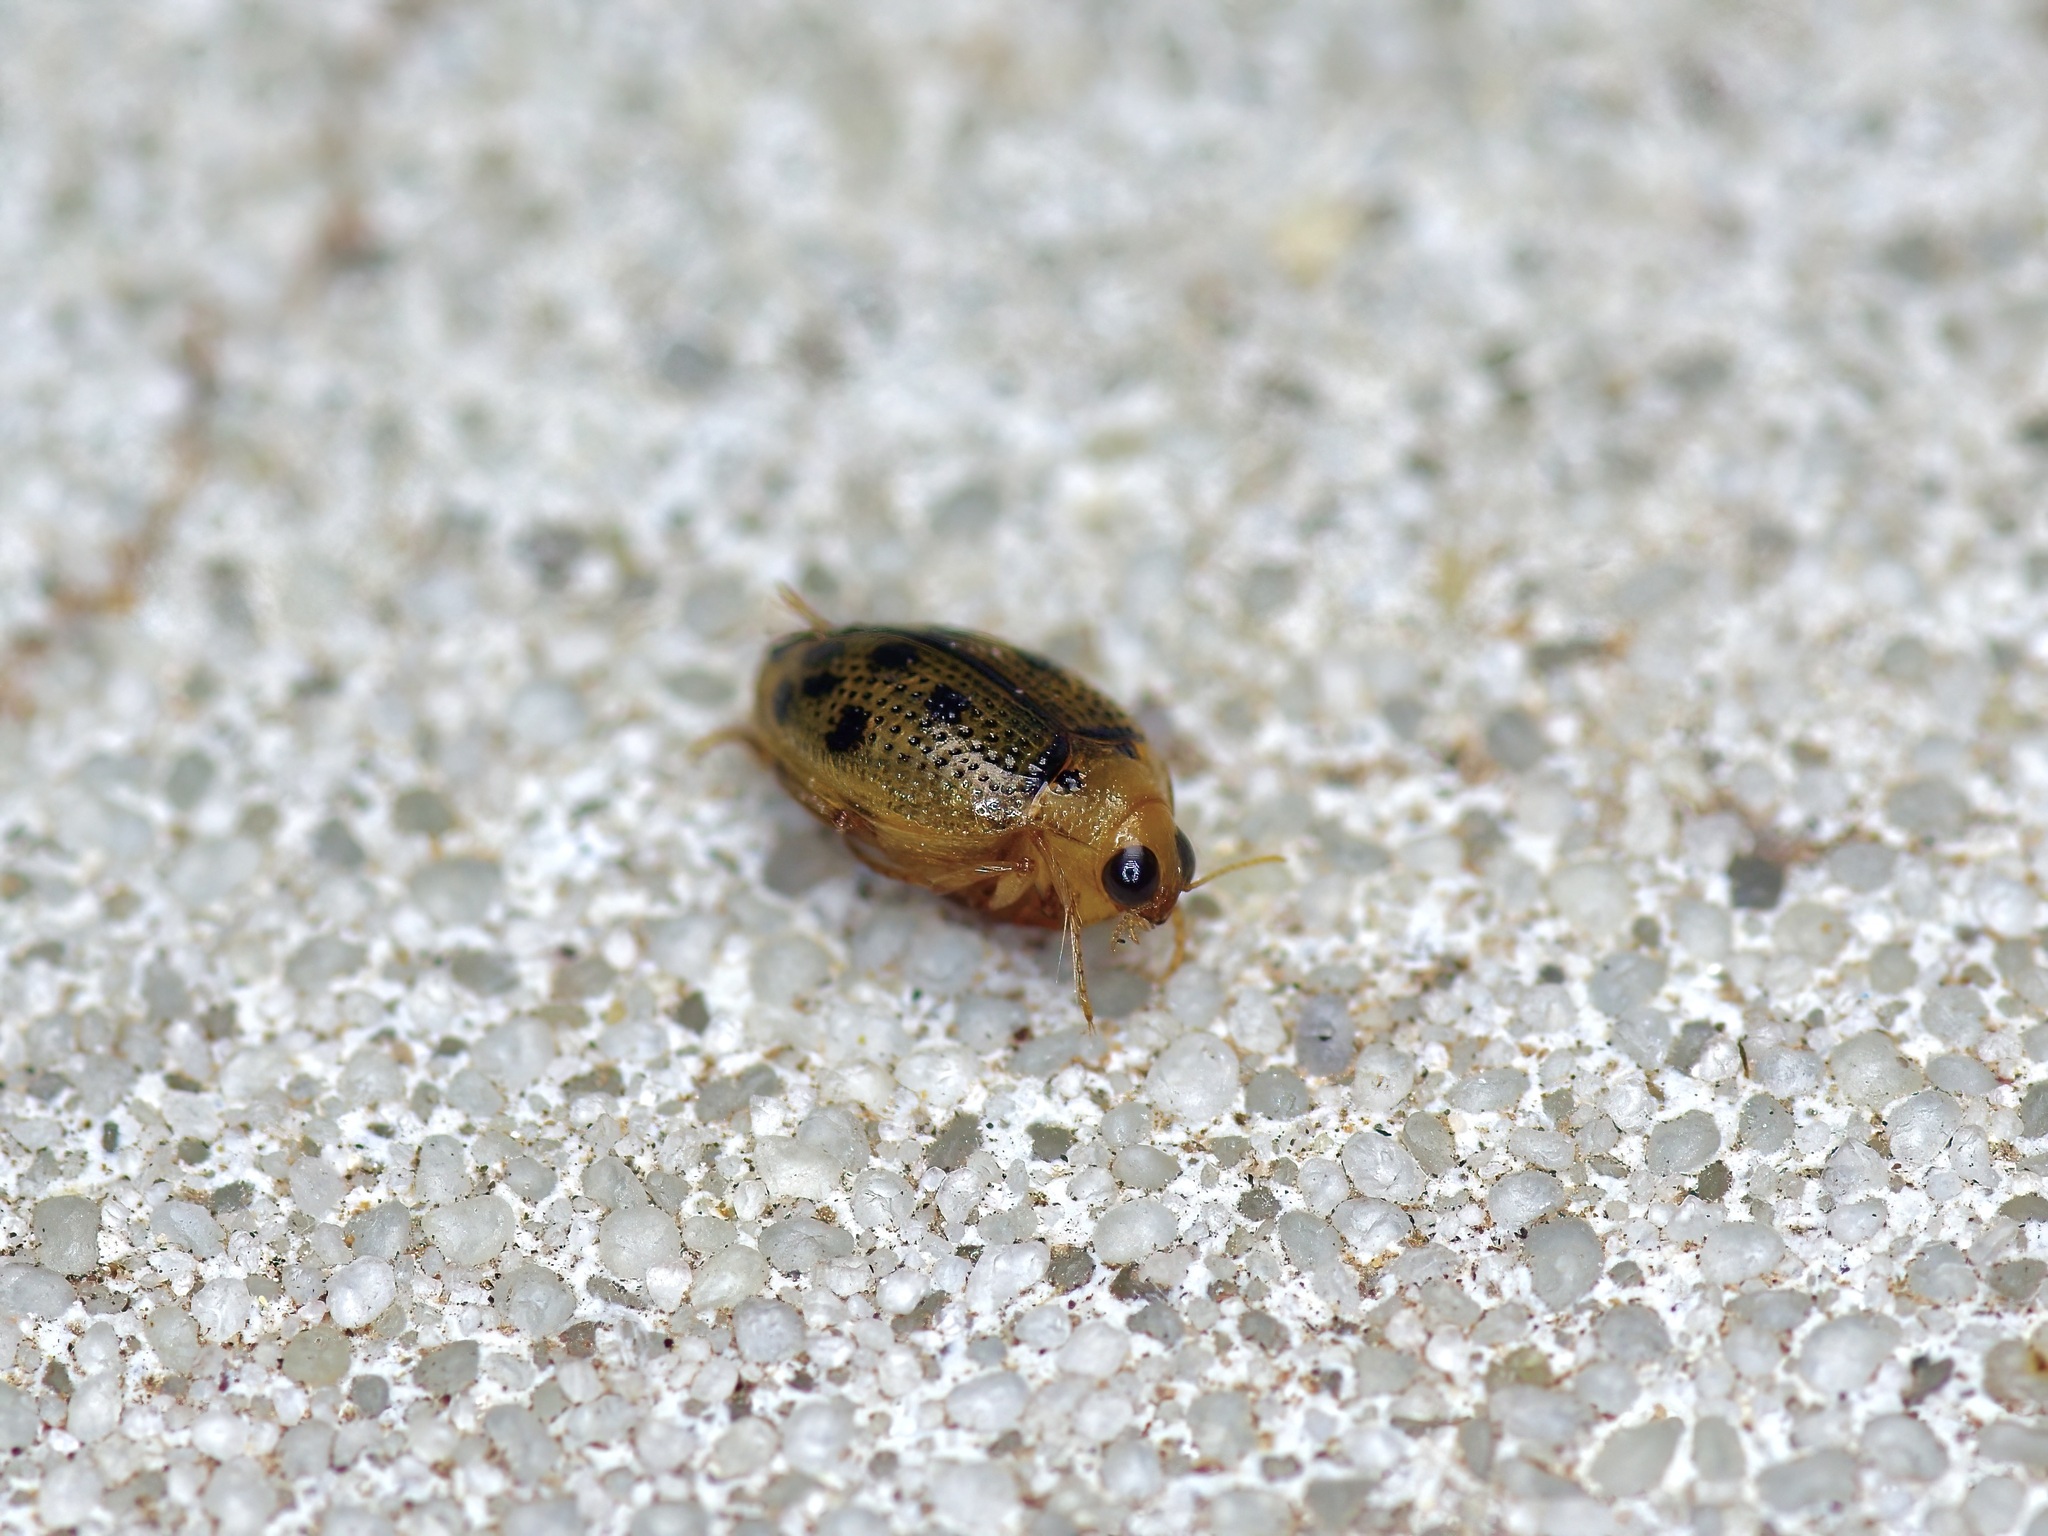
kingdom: Animalia
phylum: Arthropoda
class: Insecta
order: Coleoptera
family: Haliplidae
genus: Peltodytes
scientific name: Peltodytes litoralis
